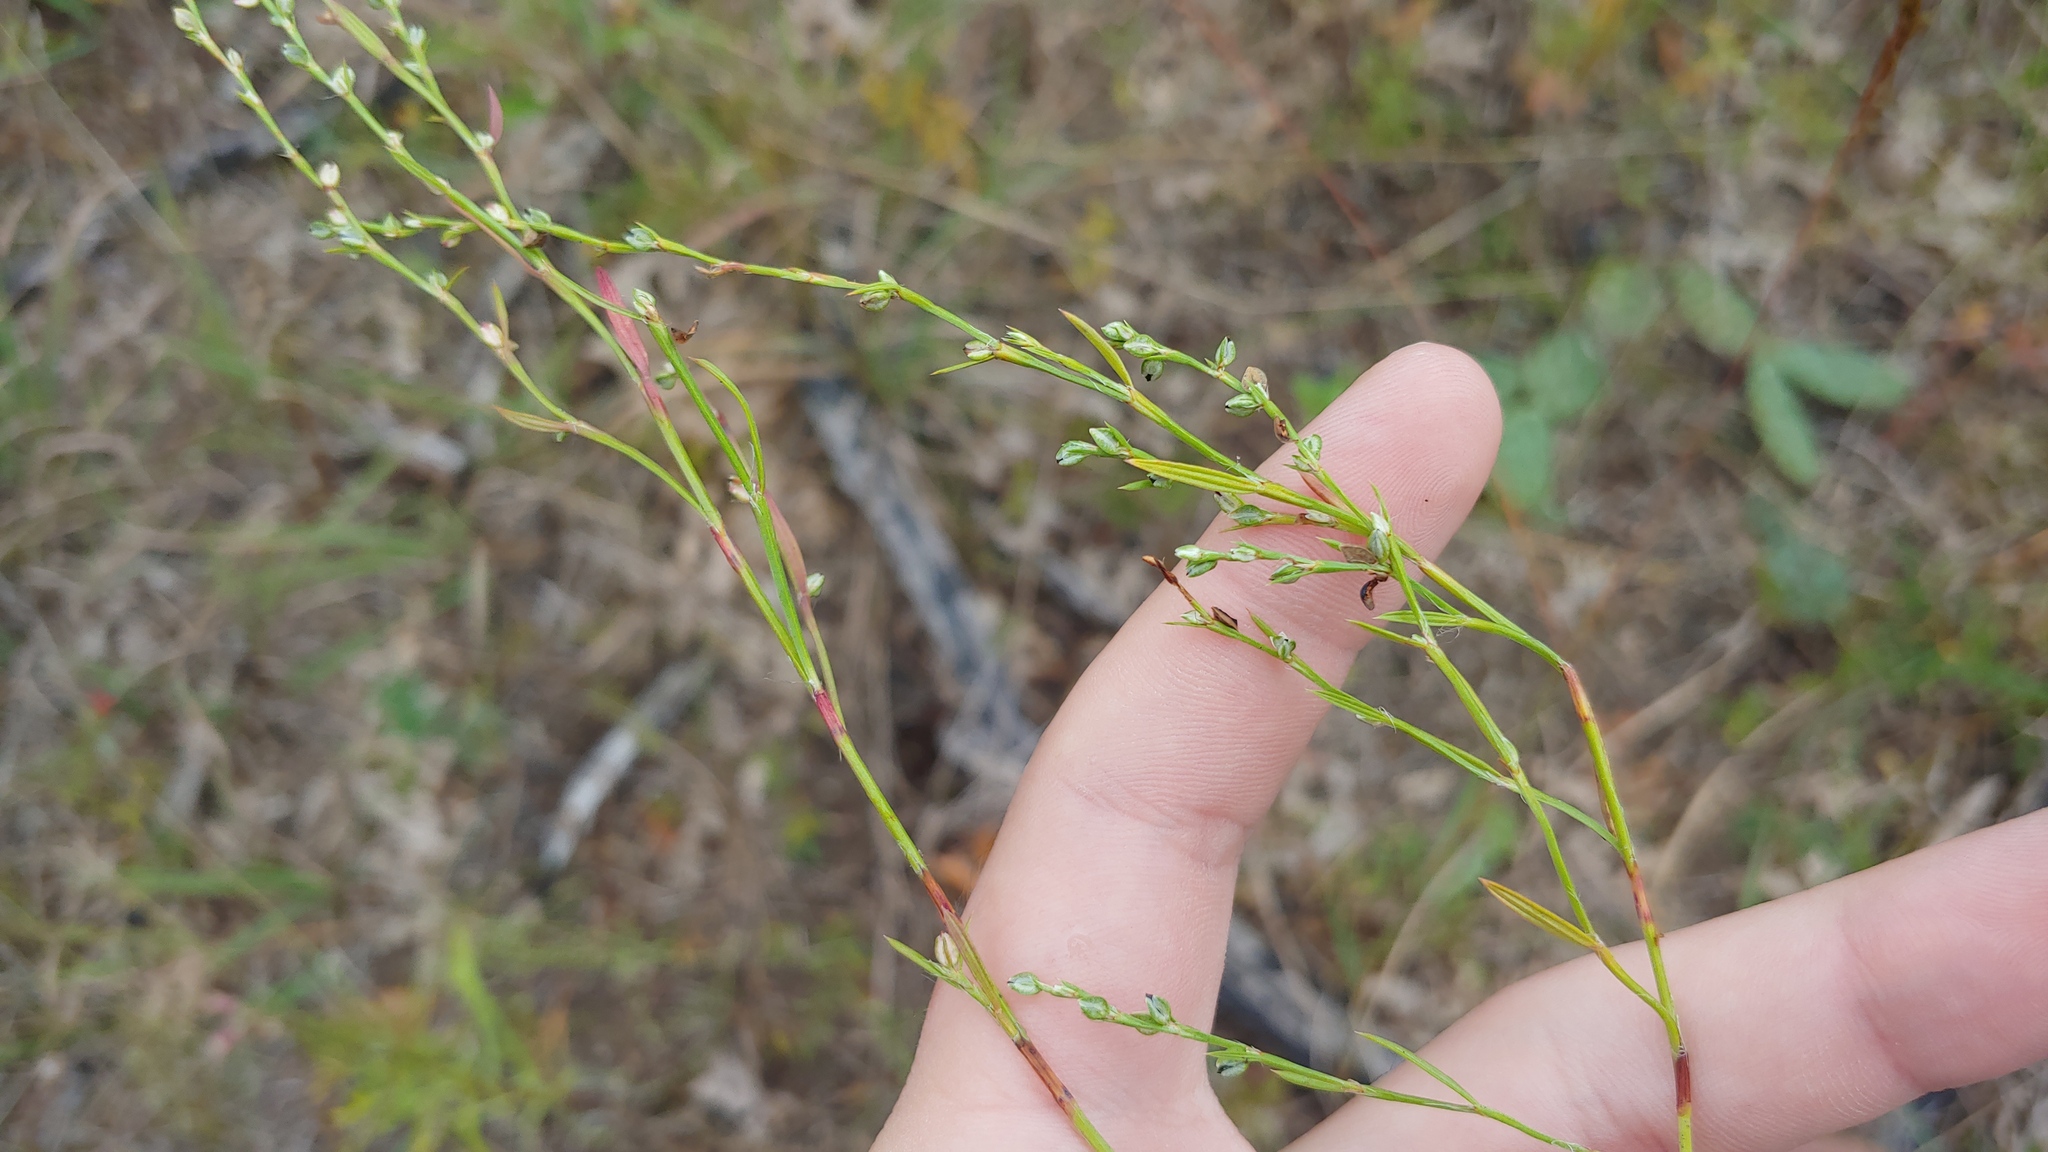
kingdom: Plantae
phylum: Tracheophyta
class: Magnoliopsida
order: Caryophyllales
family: Polygonaceae
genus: Polygonum
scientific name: Polygonum tenue
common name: Pleat-leaved knotweed
